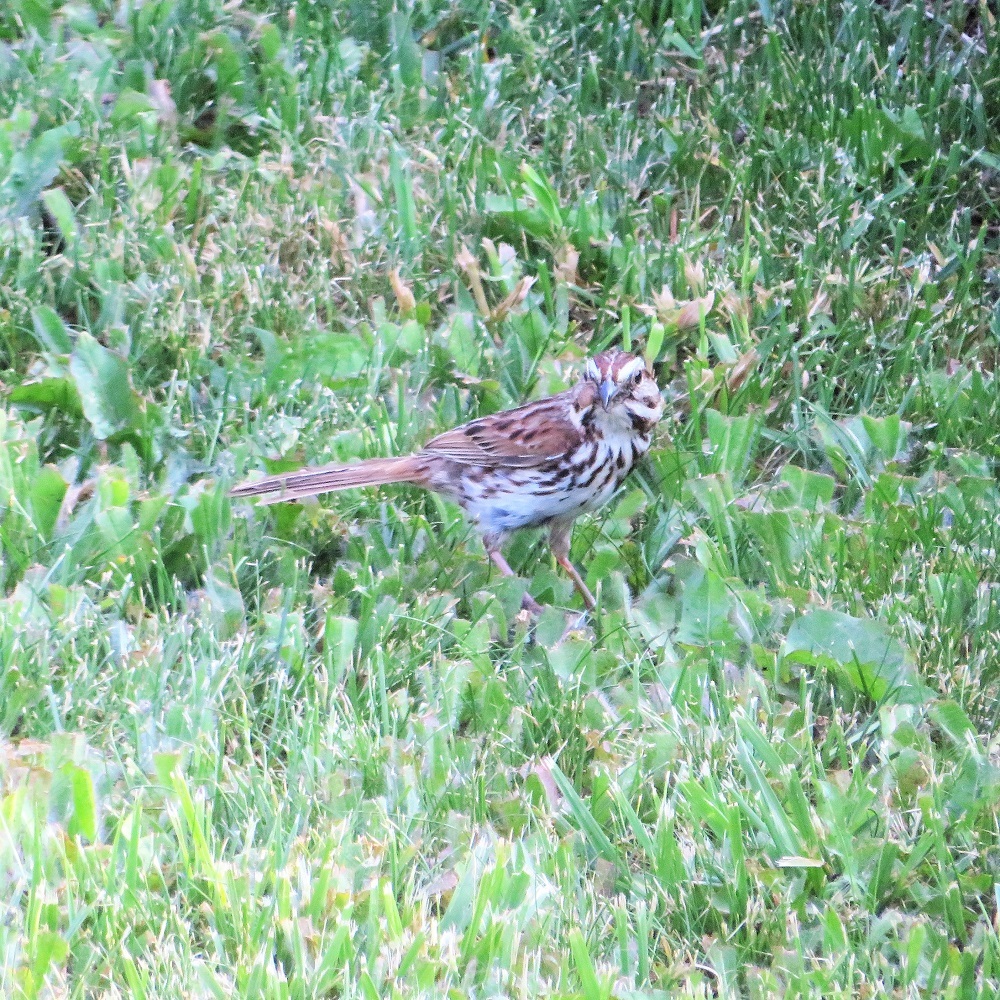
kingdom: Animalia
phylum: Chordata
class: Aves
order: Passeriformes
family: Passerellidae
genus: Melospiza
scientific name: Melospiza melodia
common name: Song sparrow
